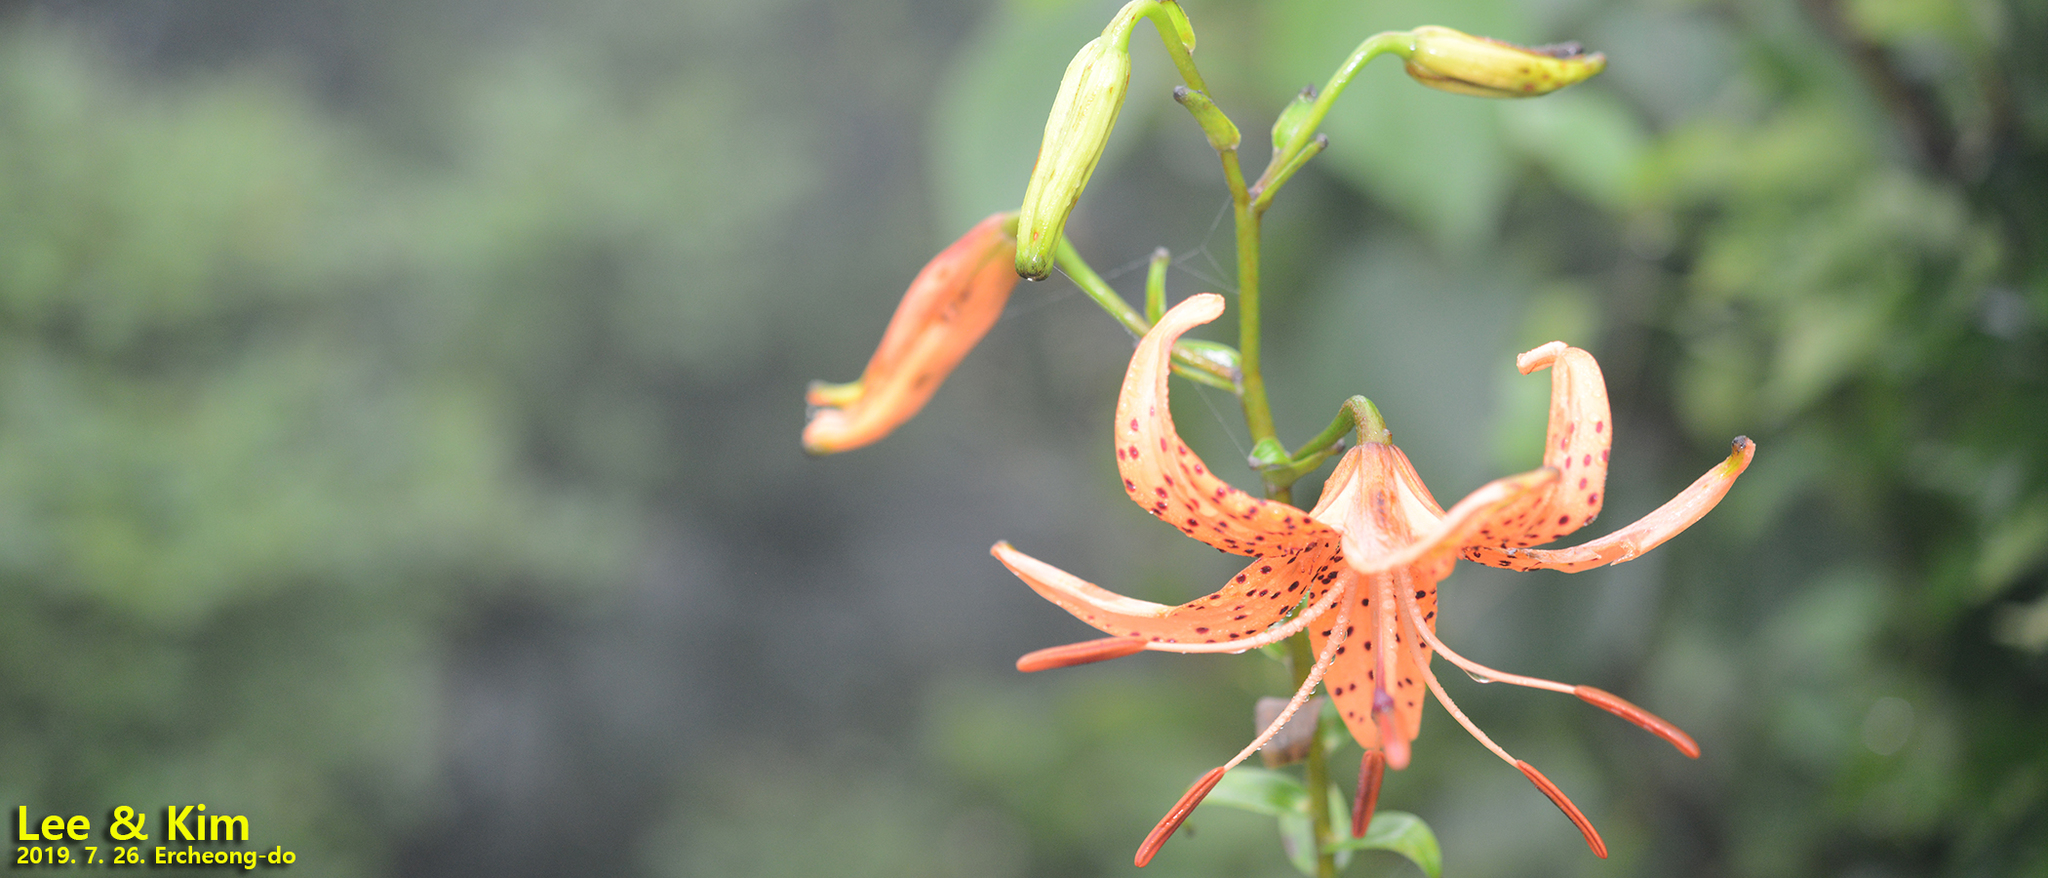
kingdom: Plantae
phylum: Tracheophyta
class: Liliopsida
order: Liliales
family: Liliaceae
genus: Lilium
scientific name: Lilium lancifolium
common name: Tiger lily
